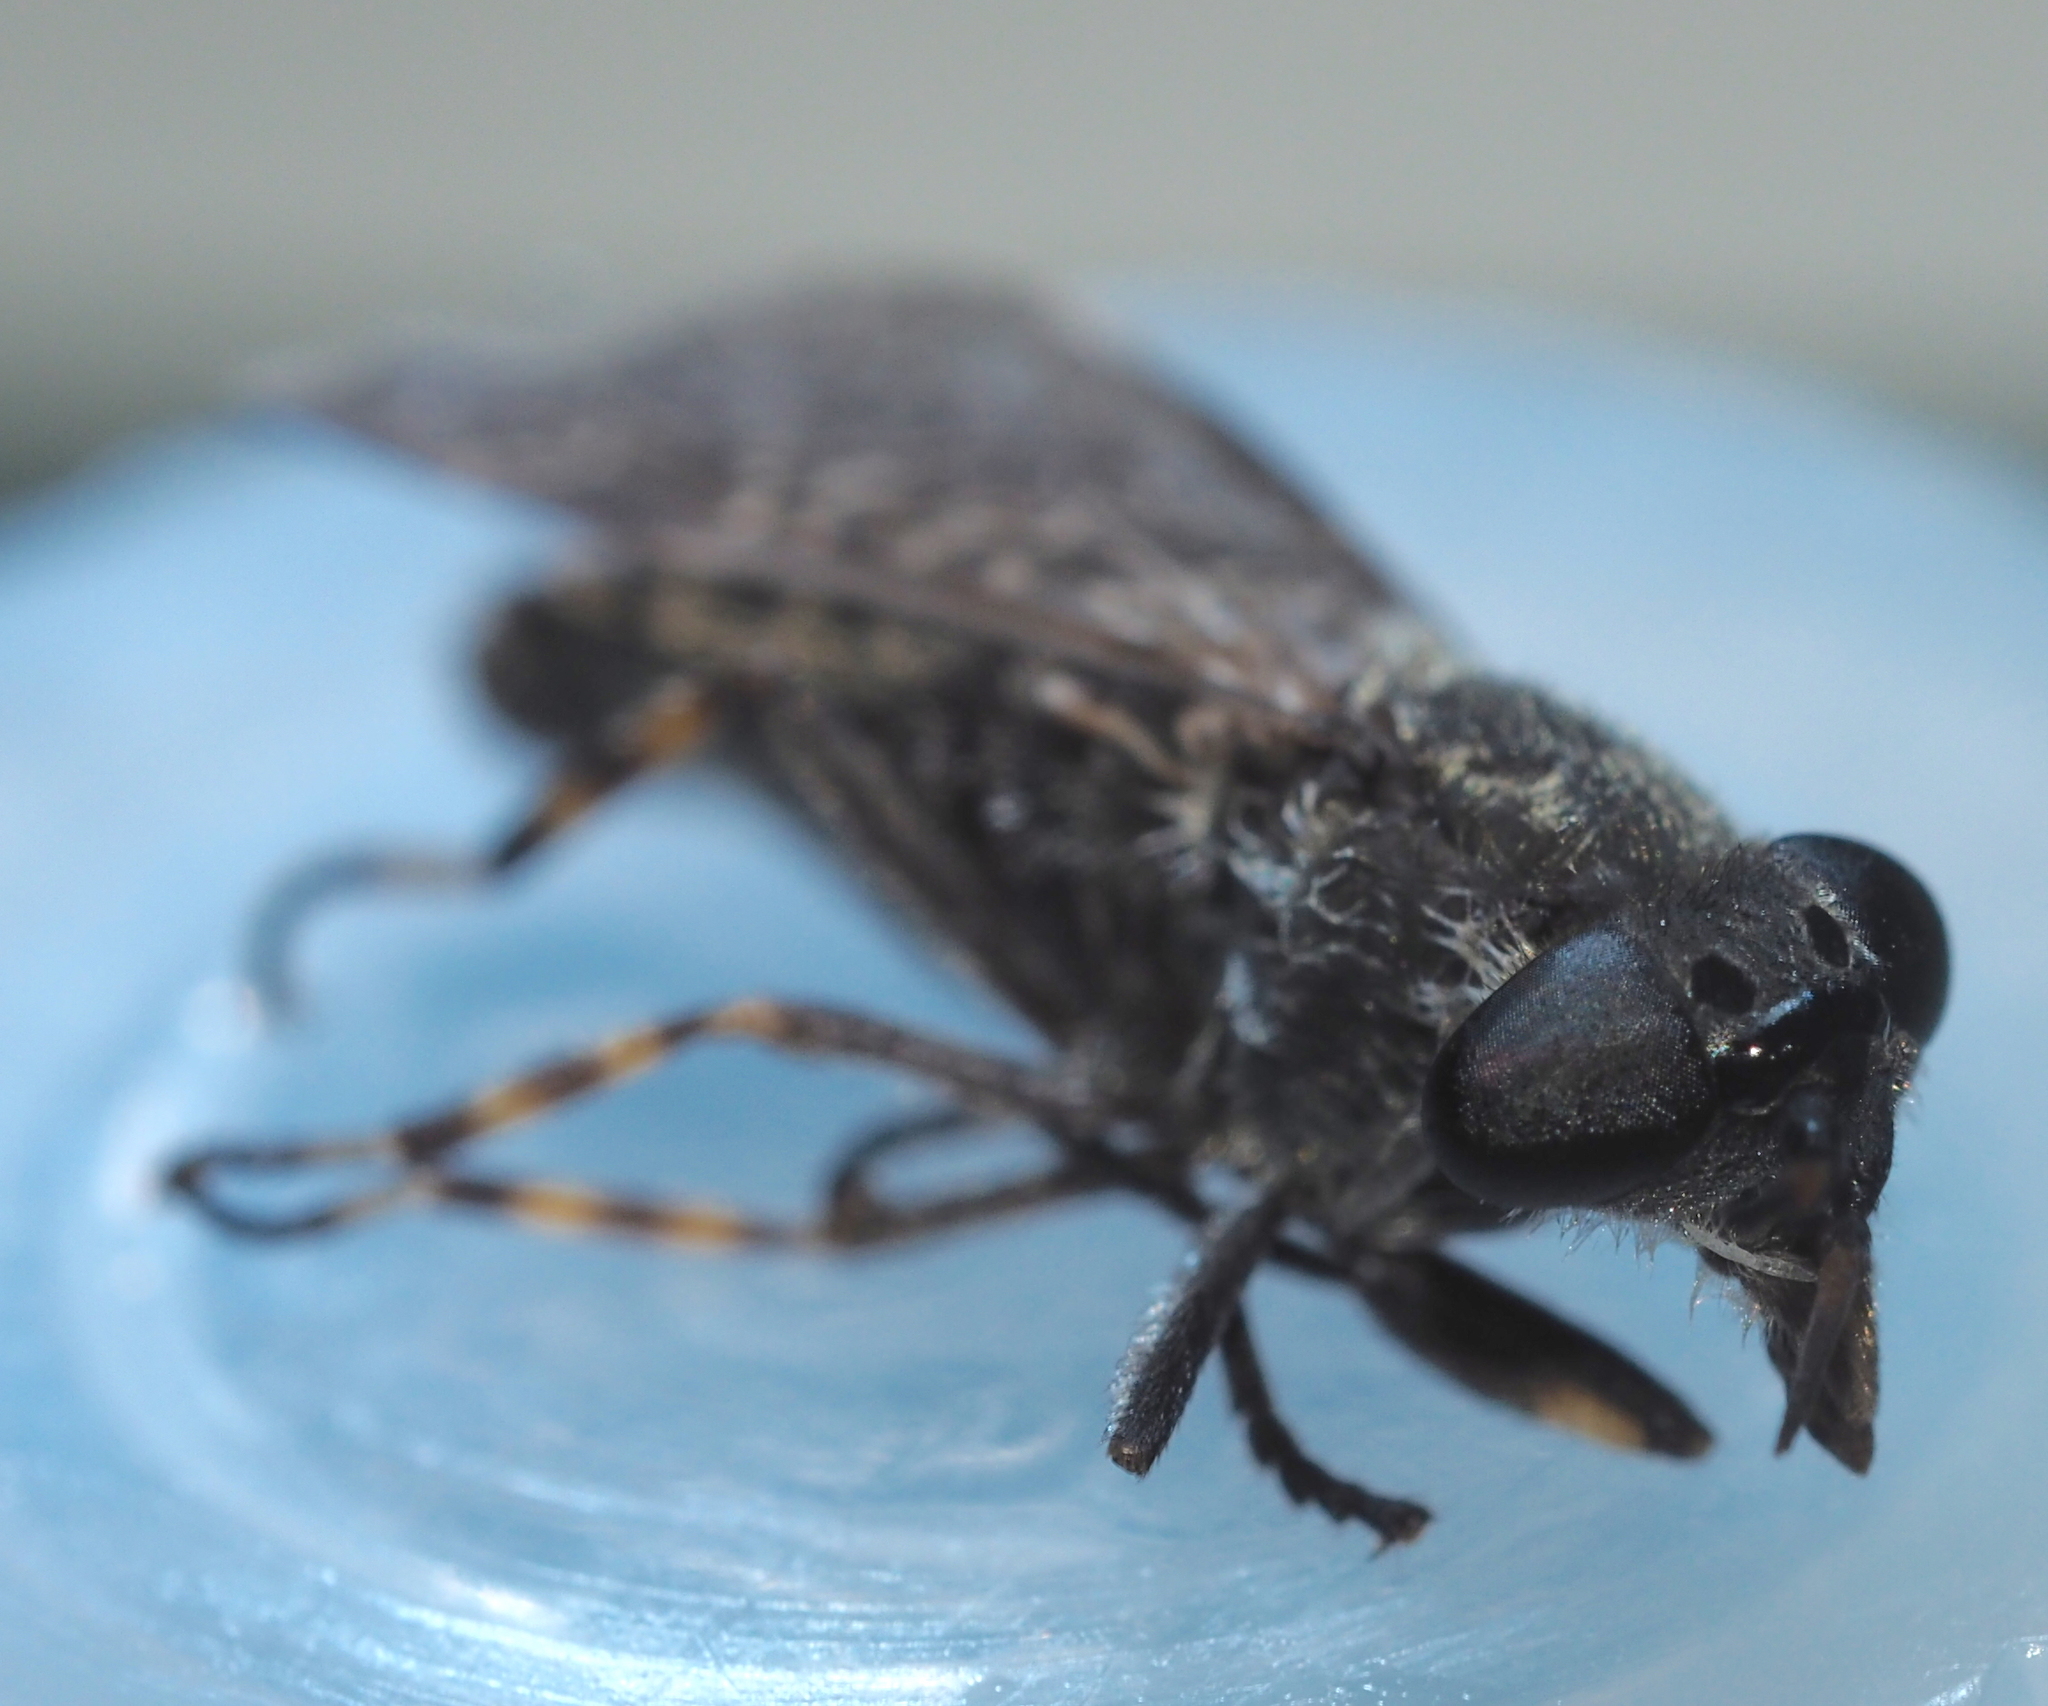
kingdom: Animalia
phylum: Arthropoda
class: Insecta
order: Diptera
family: Tabanidae
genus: Haematopota
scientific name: Haematopota pluvialis
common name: Common horse fly
